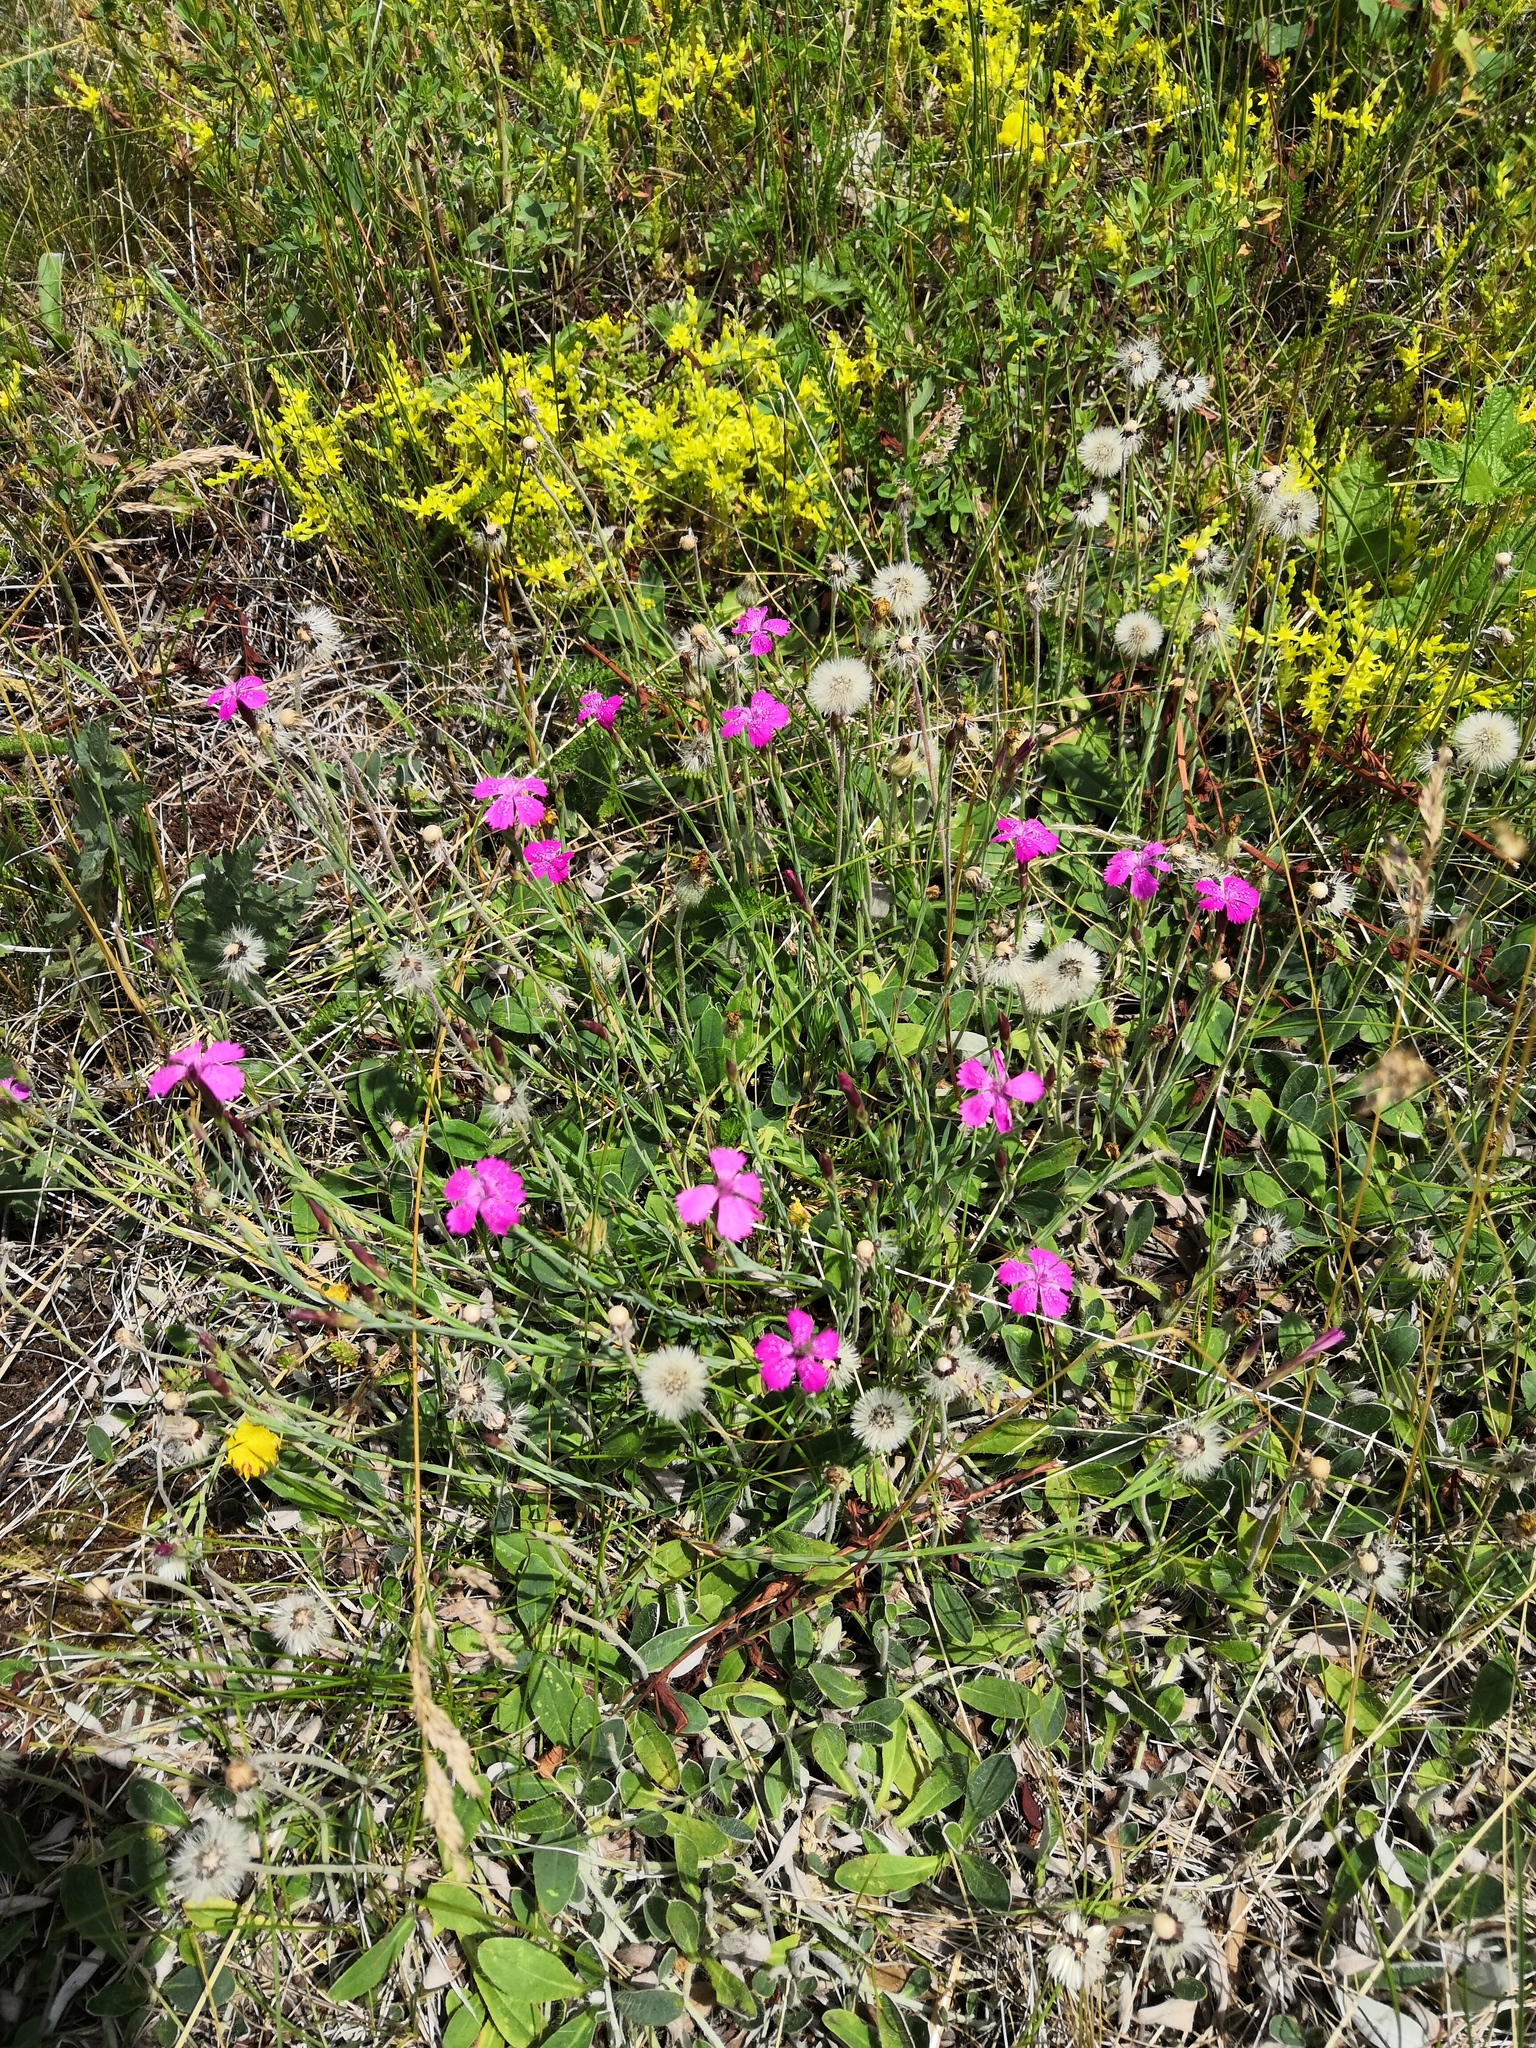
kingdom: Plantae
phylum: Tracheophyta
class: Magnoliopsida
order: Caryophyllales
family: Caryophyllaceae
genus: Dianthus
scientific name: Dianthus deltoides
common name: Maiden pink
